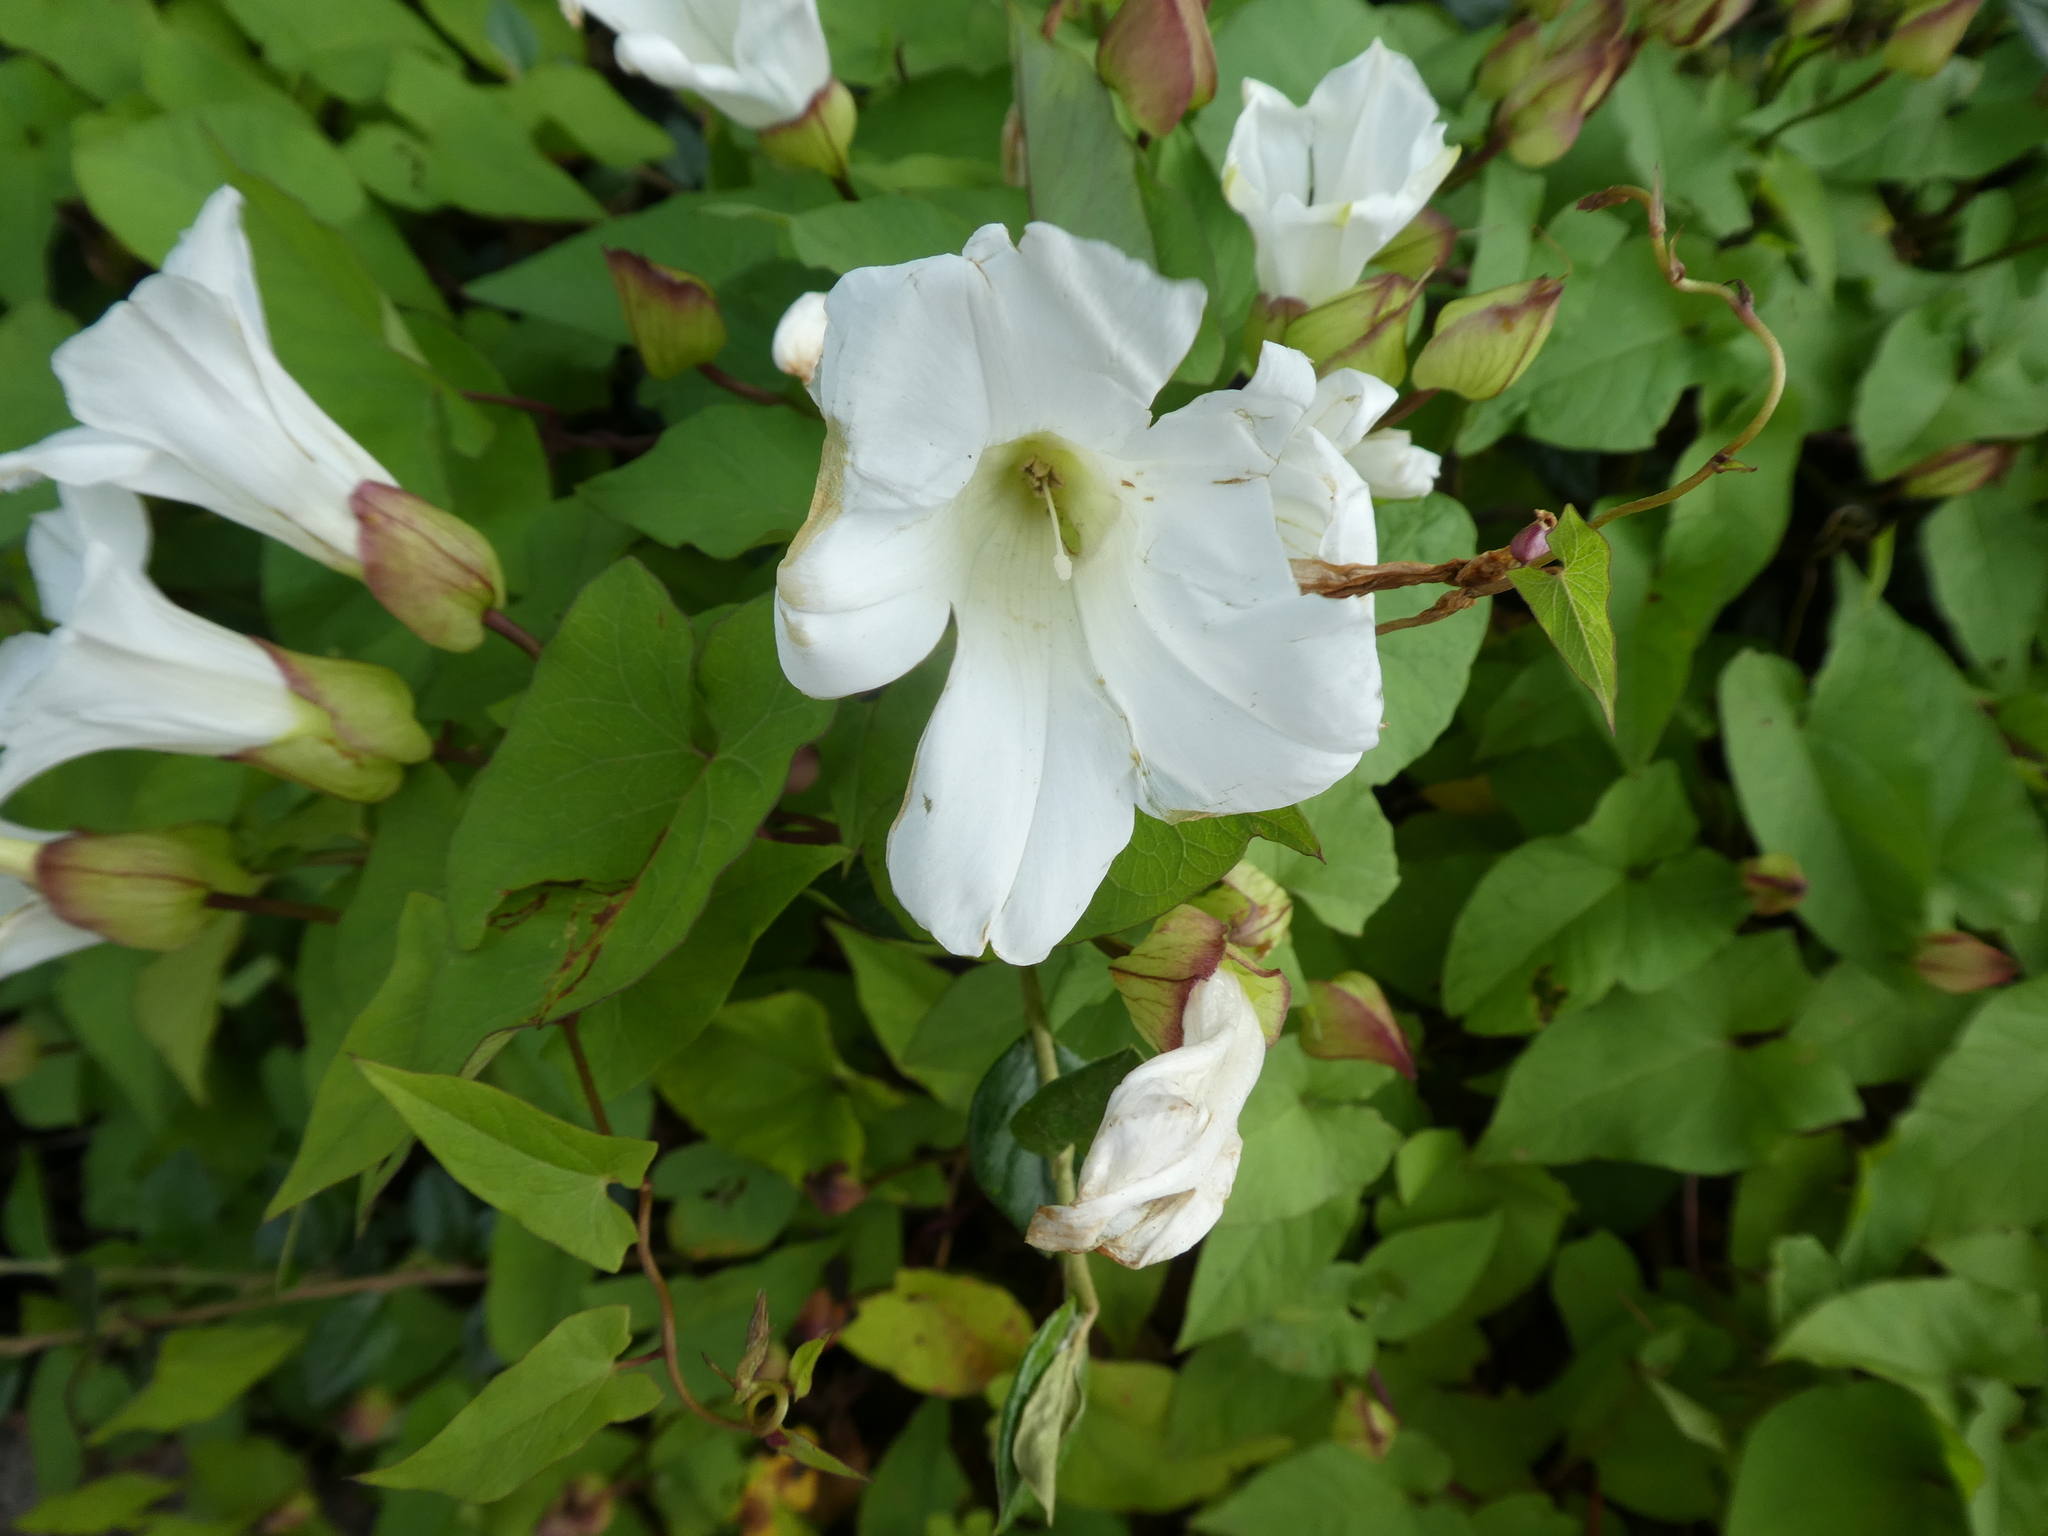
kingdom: Plantae
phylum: Tracheophyta
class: Magnoliopsida
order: Solanales
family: Convolvulaceae
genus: Calystegia
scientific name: Calystegia silvatica
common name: Large bindweed
